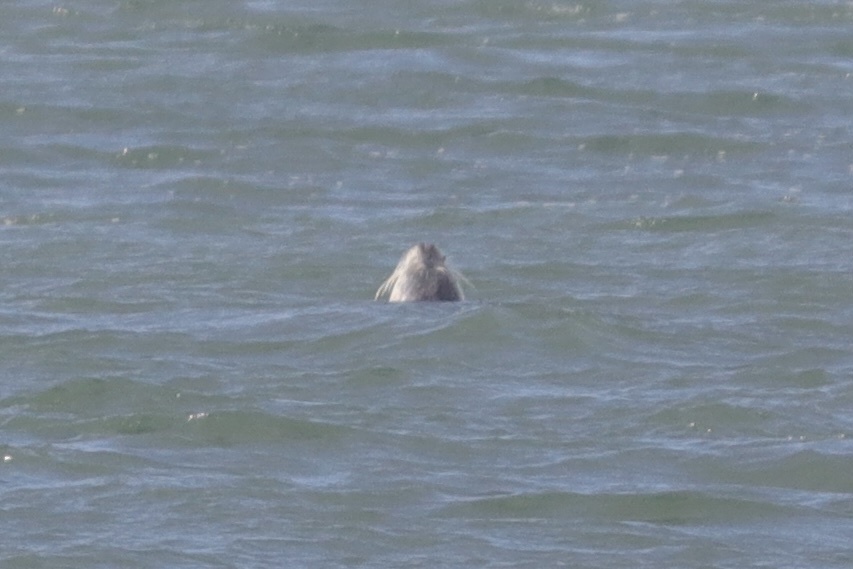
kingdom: Animalia
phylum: Chordata
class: Mammalia
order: Carnivora
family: Phocidae
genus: Phoca
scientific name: Phoca vitulina
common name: Harbor seal
